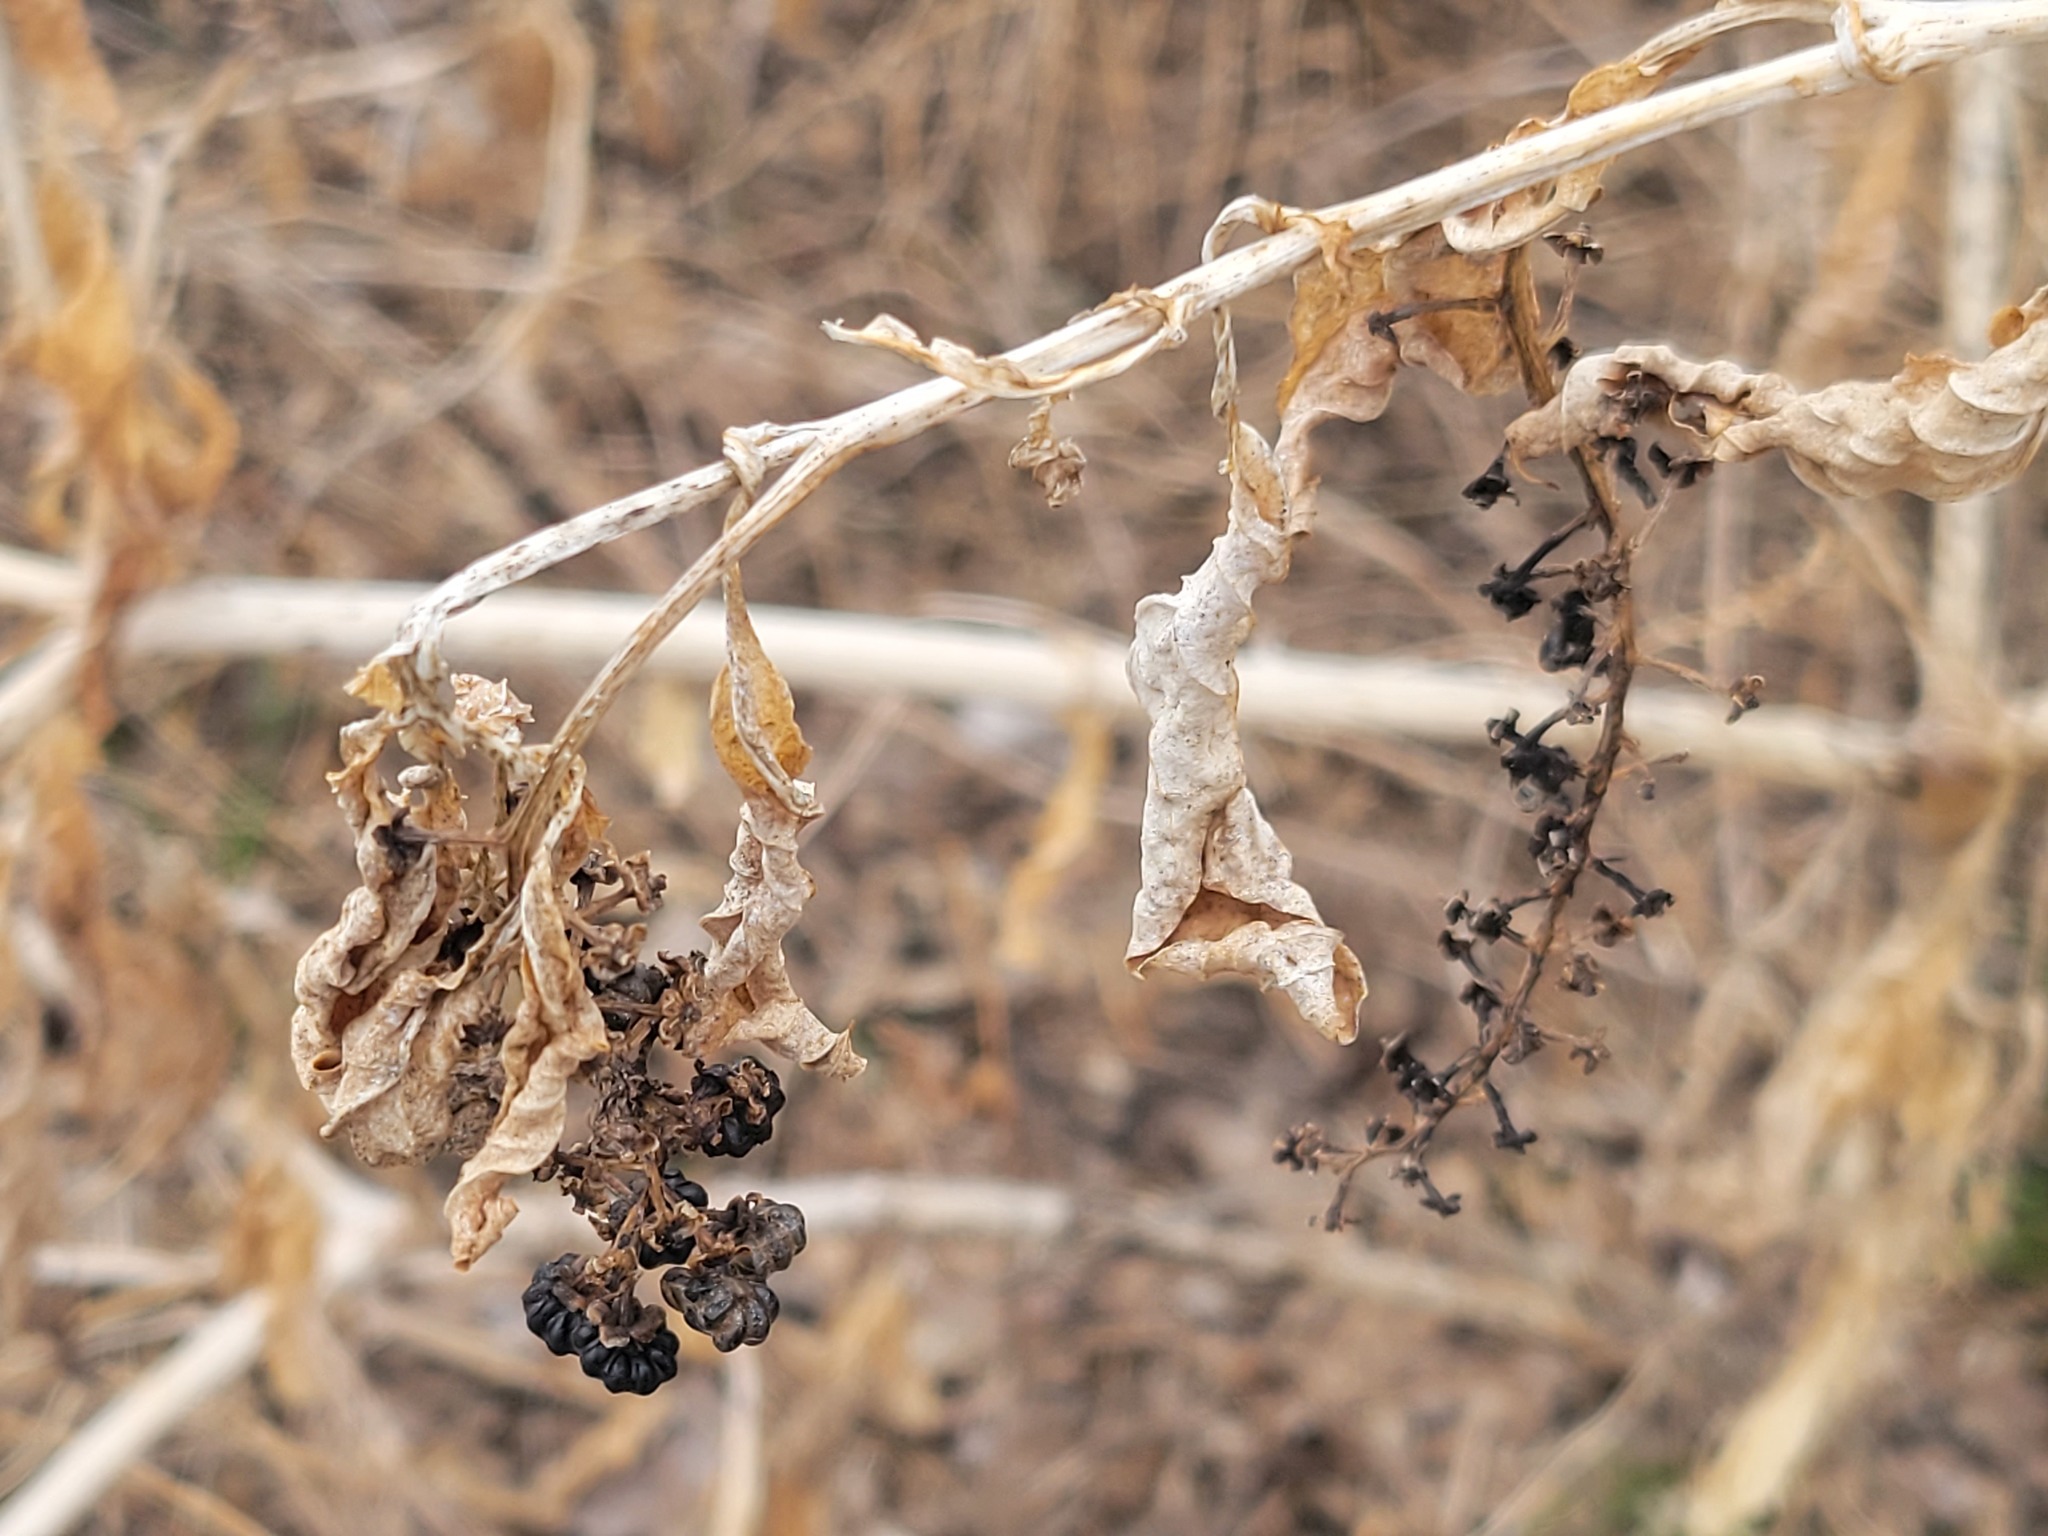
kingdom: Plantae
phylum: Tracheophyta
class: Magnoliopsida
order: Caryophyllales
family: Phytolaccaceae
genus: Phytolacca
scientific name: Phytolacca americana
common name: American pokeweed
